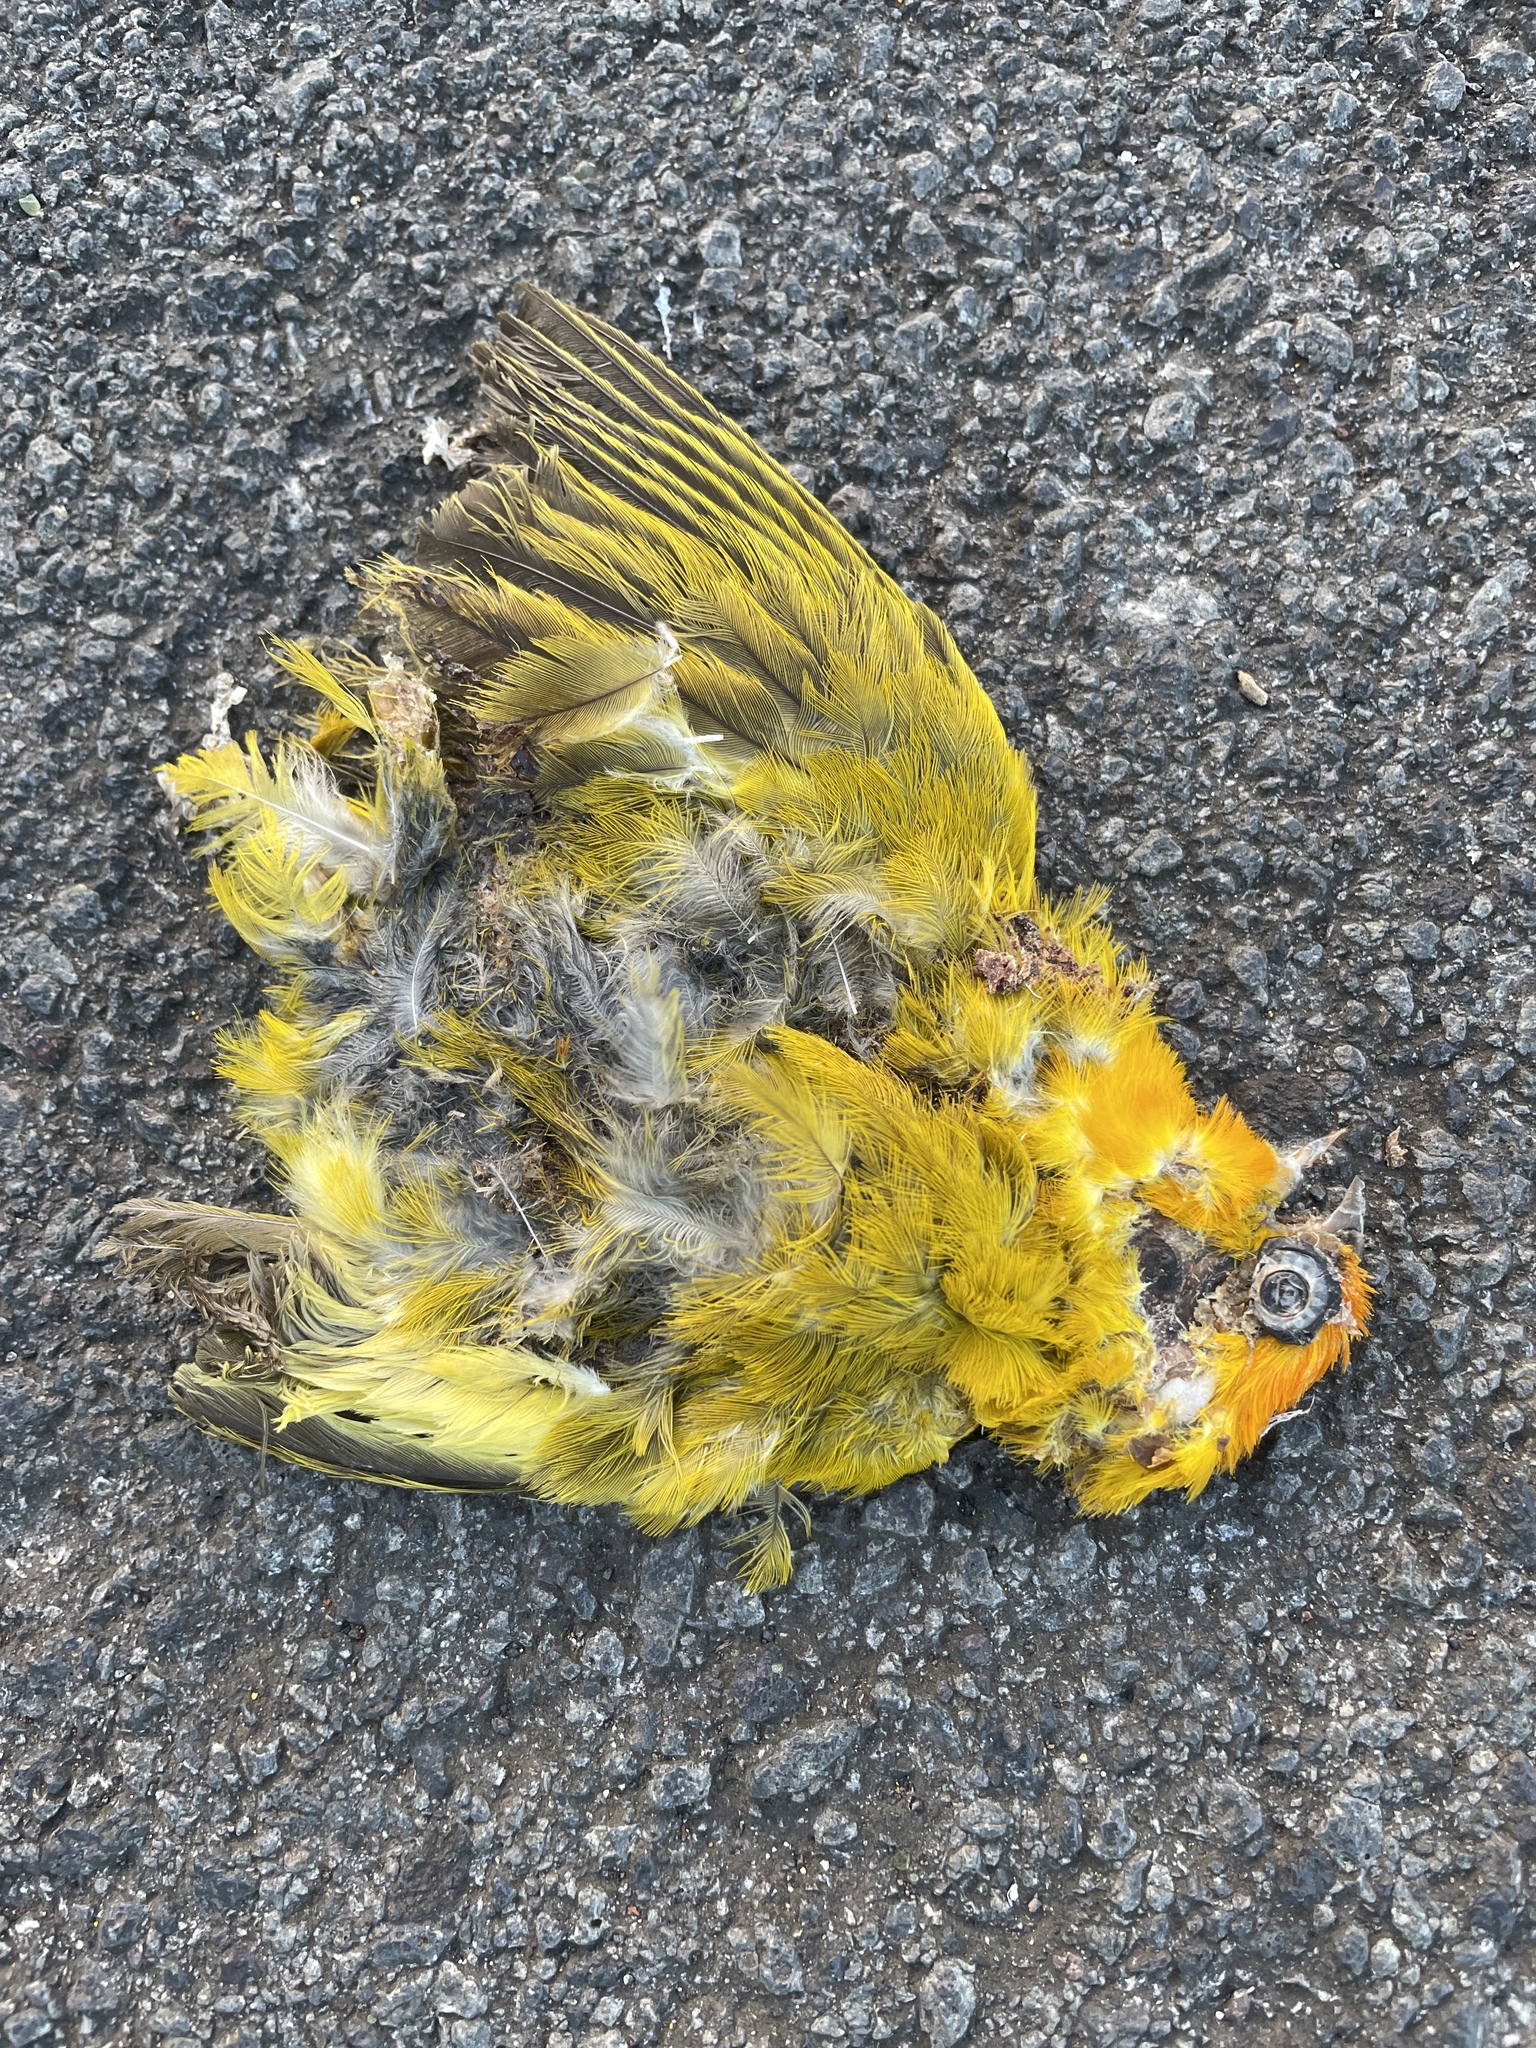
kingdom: Animalia
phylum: Chordata
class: Aves
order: Passeriformes
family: Thraupidae
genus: Sicalis
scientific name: Sicalis flaveola
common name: Saffron finch
